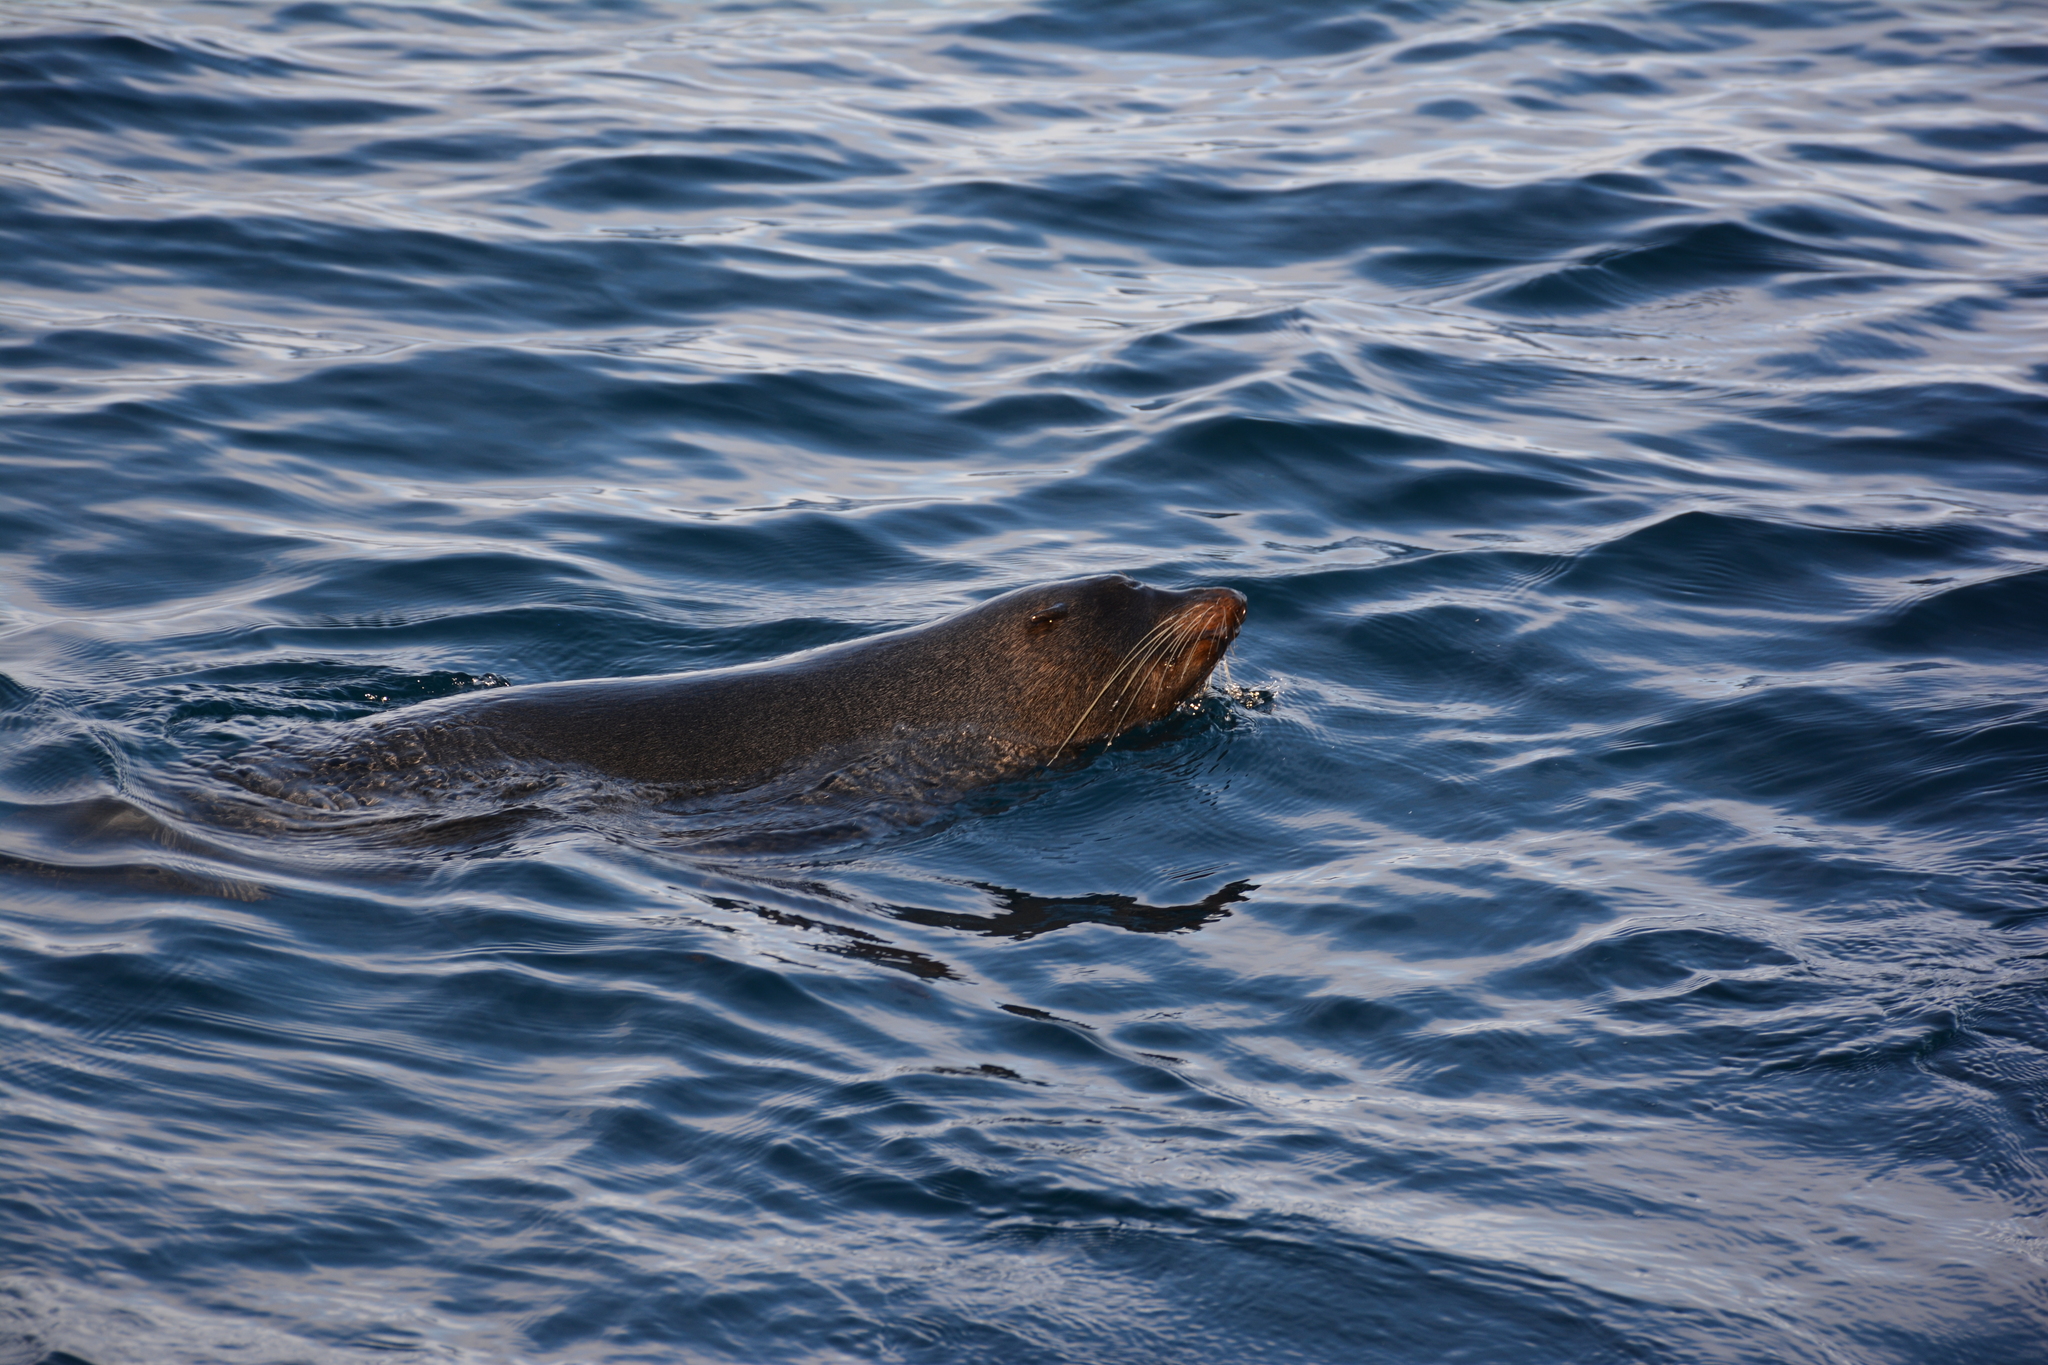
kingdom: Animalia
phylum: Chordata
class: Mammalia
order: Carnivora
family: Otariidae
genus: Arctocephalus
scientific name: Arctocephalus forsteri
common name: New zealand fur seal
